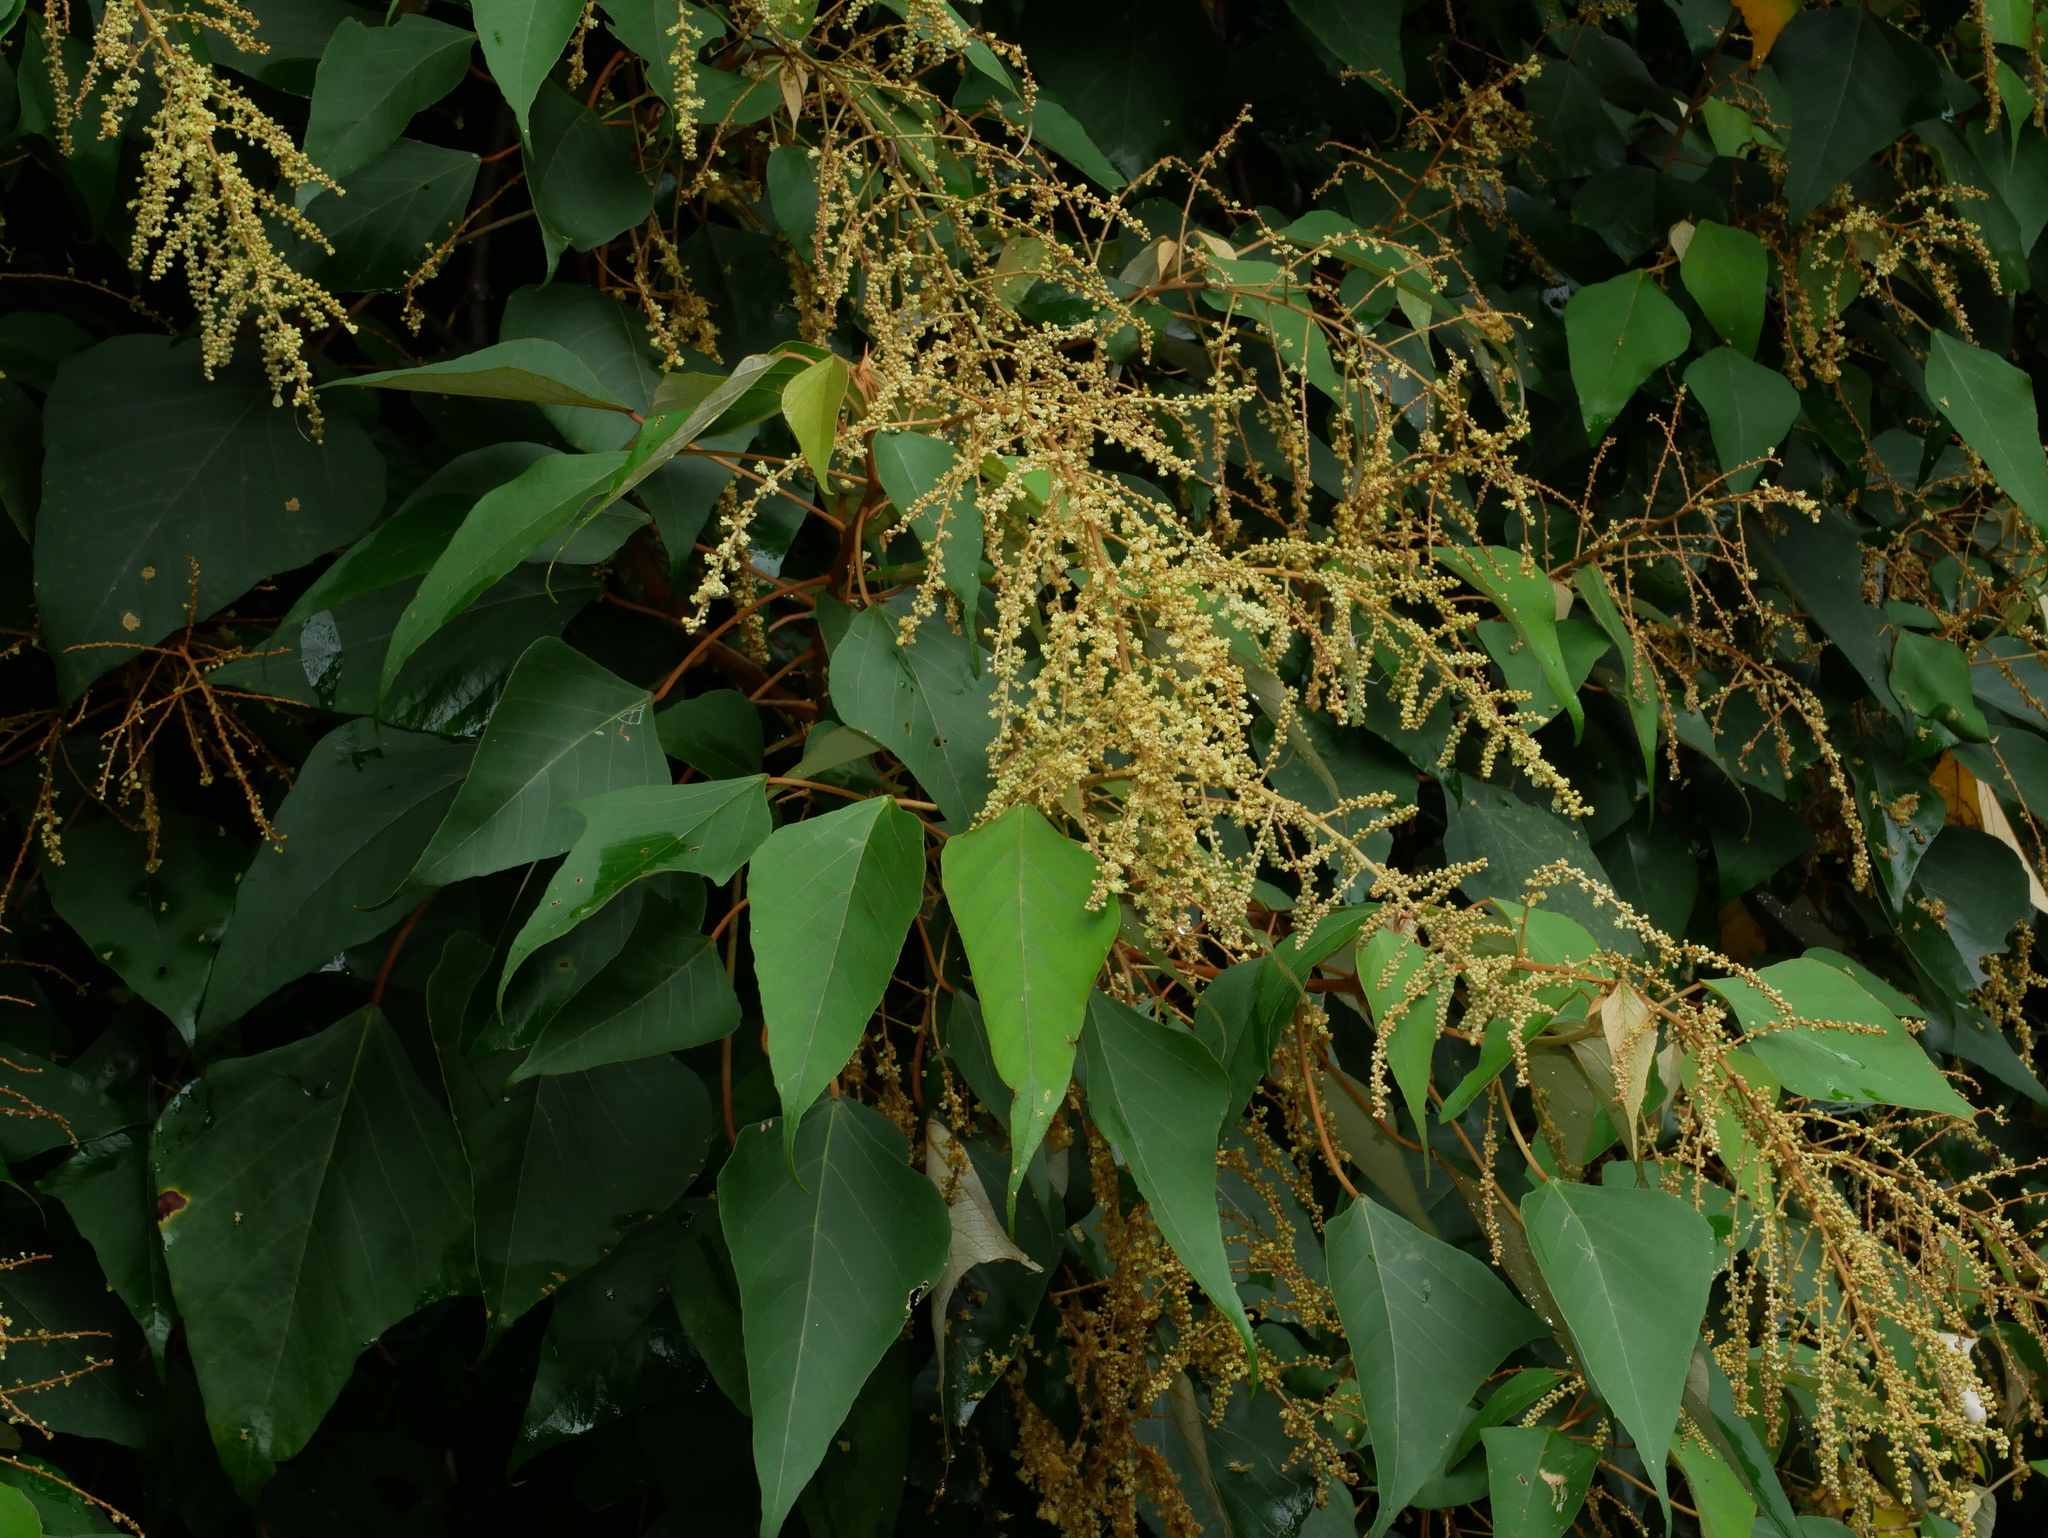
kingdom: Plantae
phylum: Tracheophyta
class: Magnoliopsida
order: Malpighiales
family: Euphorbiaceae
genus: Mallotus
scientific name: Mallotus paniculatus
